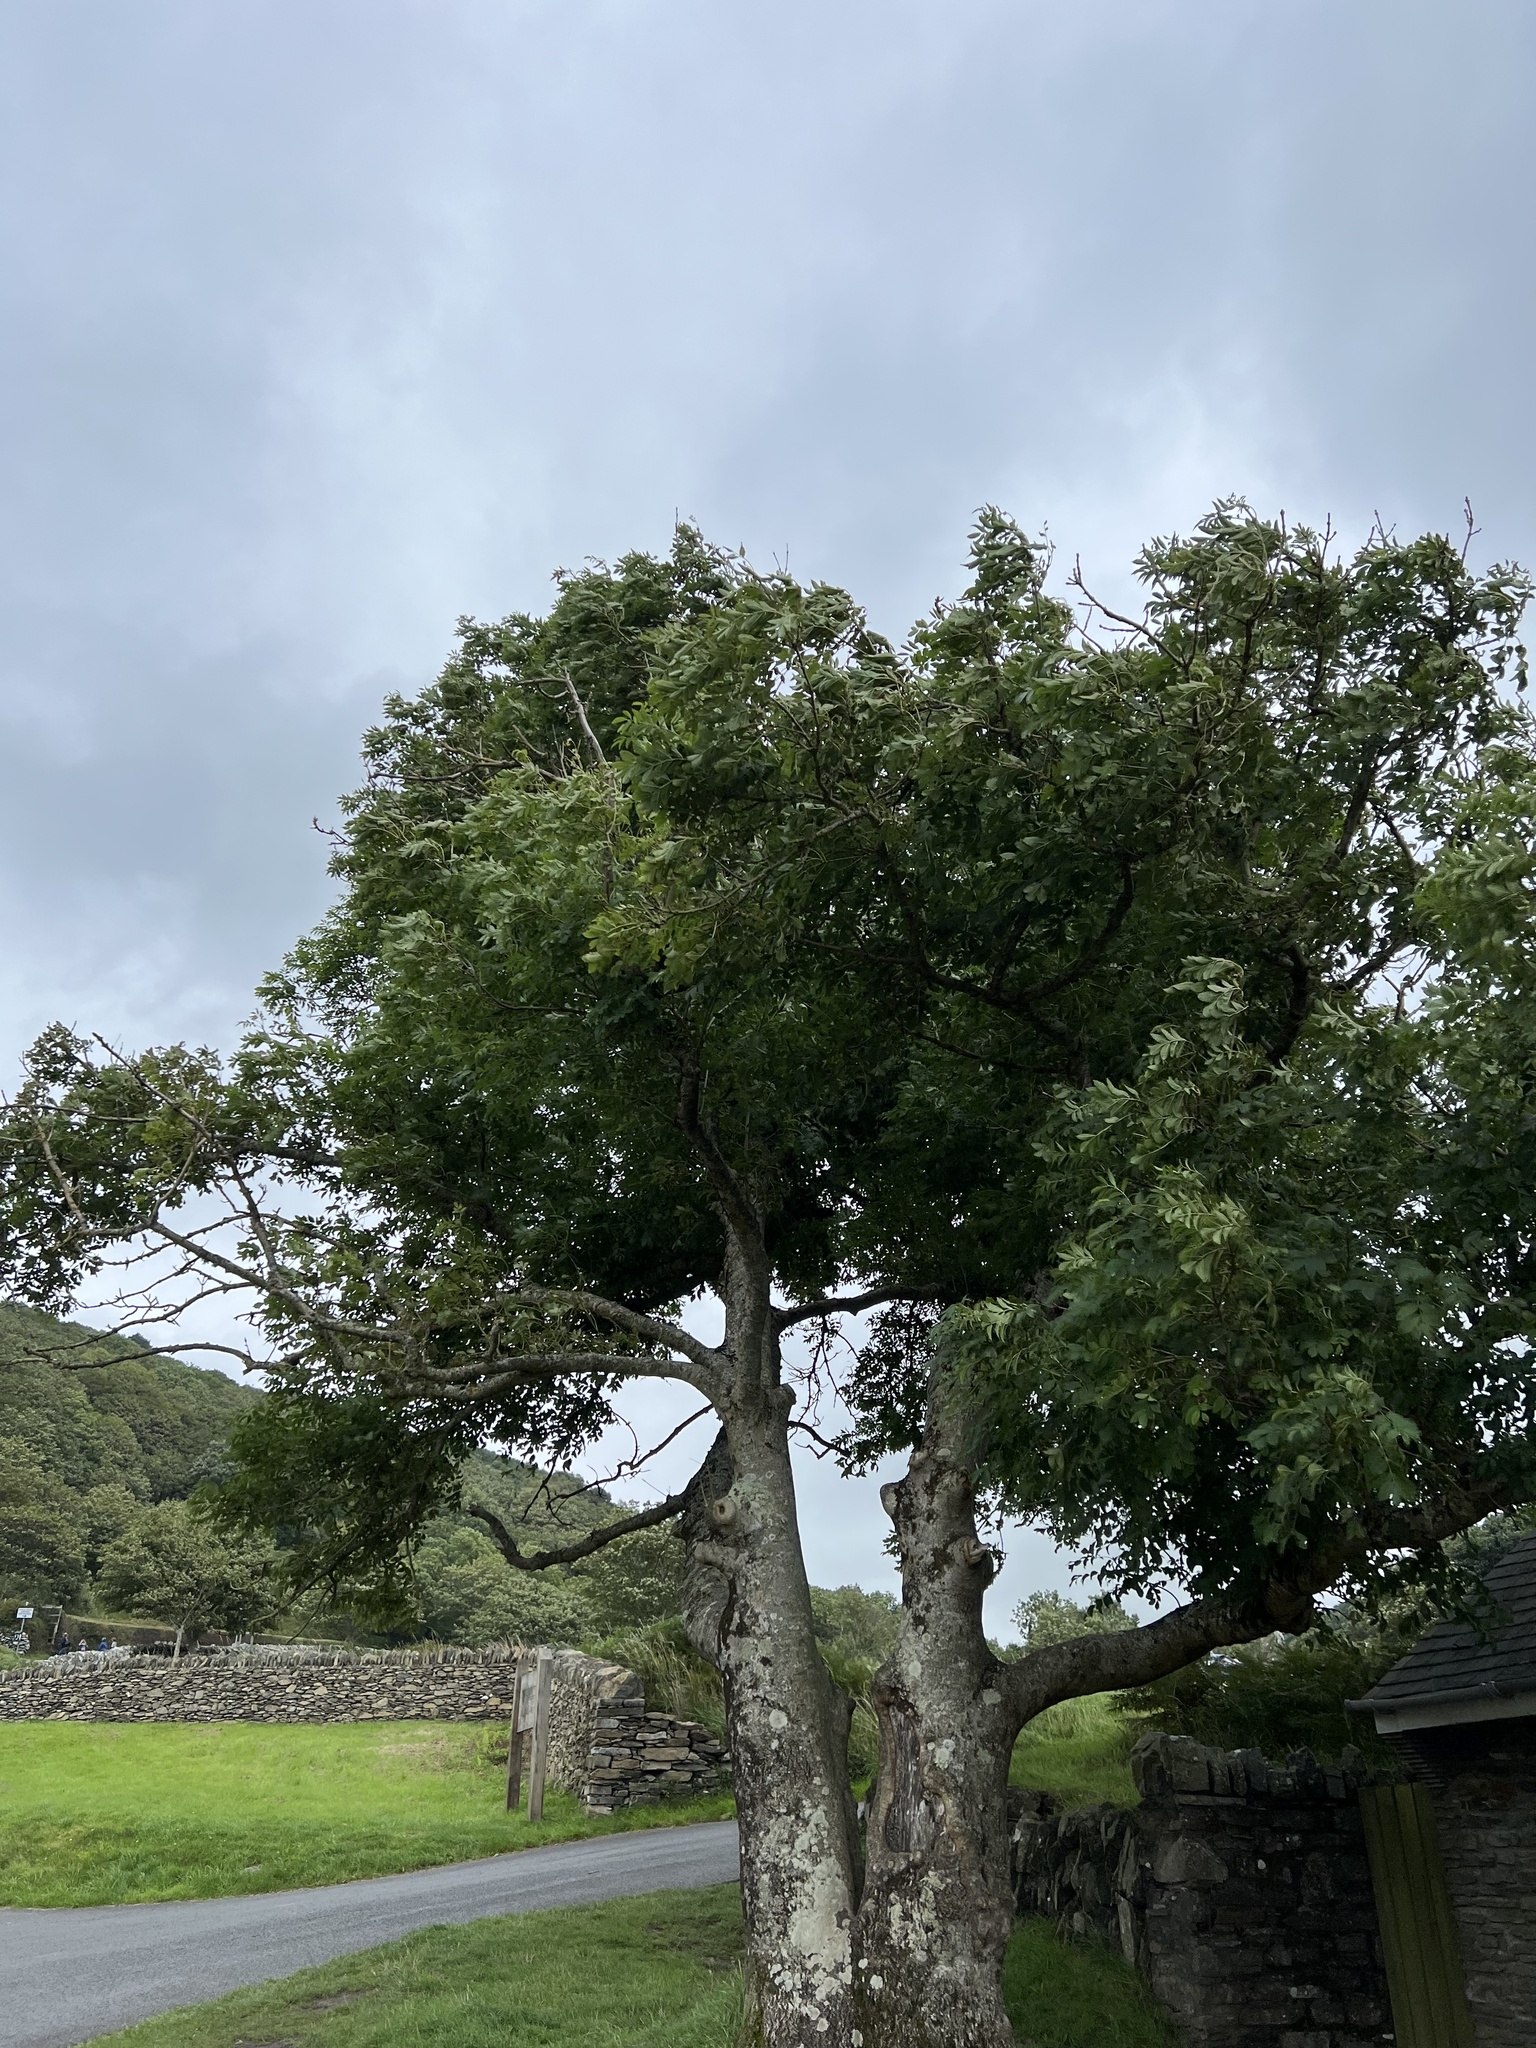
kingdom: Plantae
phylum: Tracheophyta
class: Magnoliopsida
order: Lamiales
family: Oleaceae
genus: Fraxinus
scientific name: Fraxinus excelsior
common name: European ash
